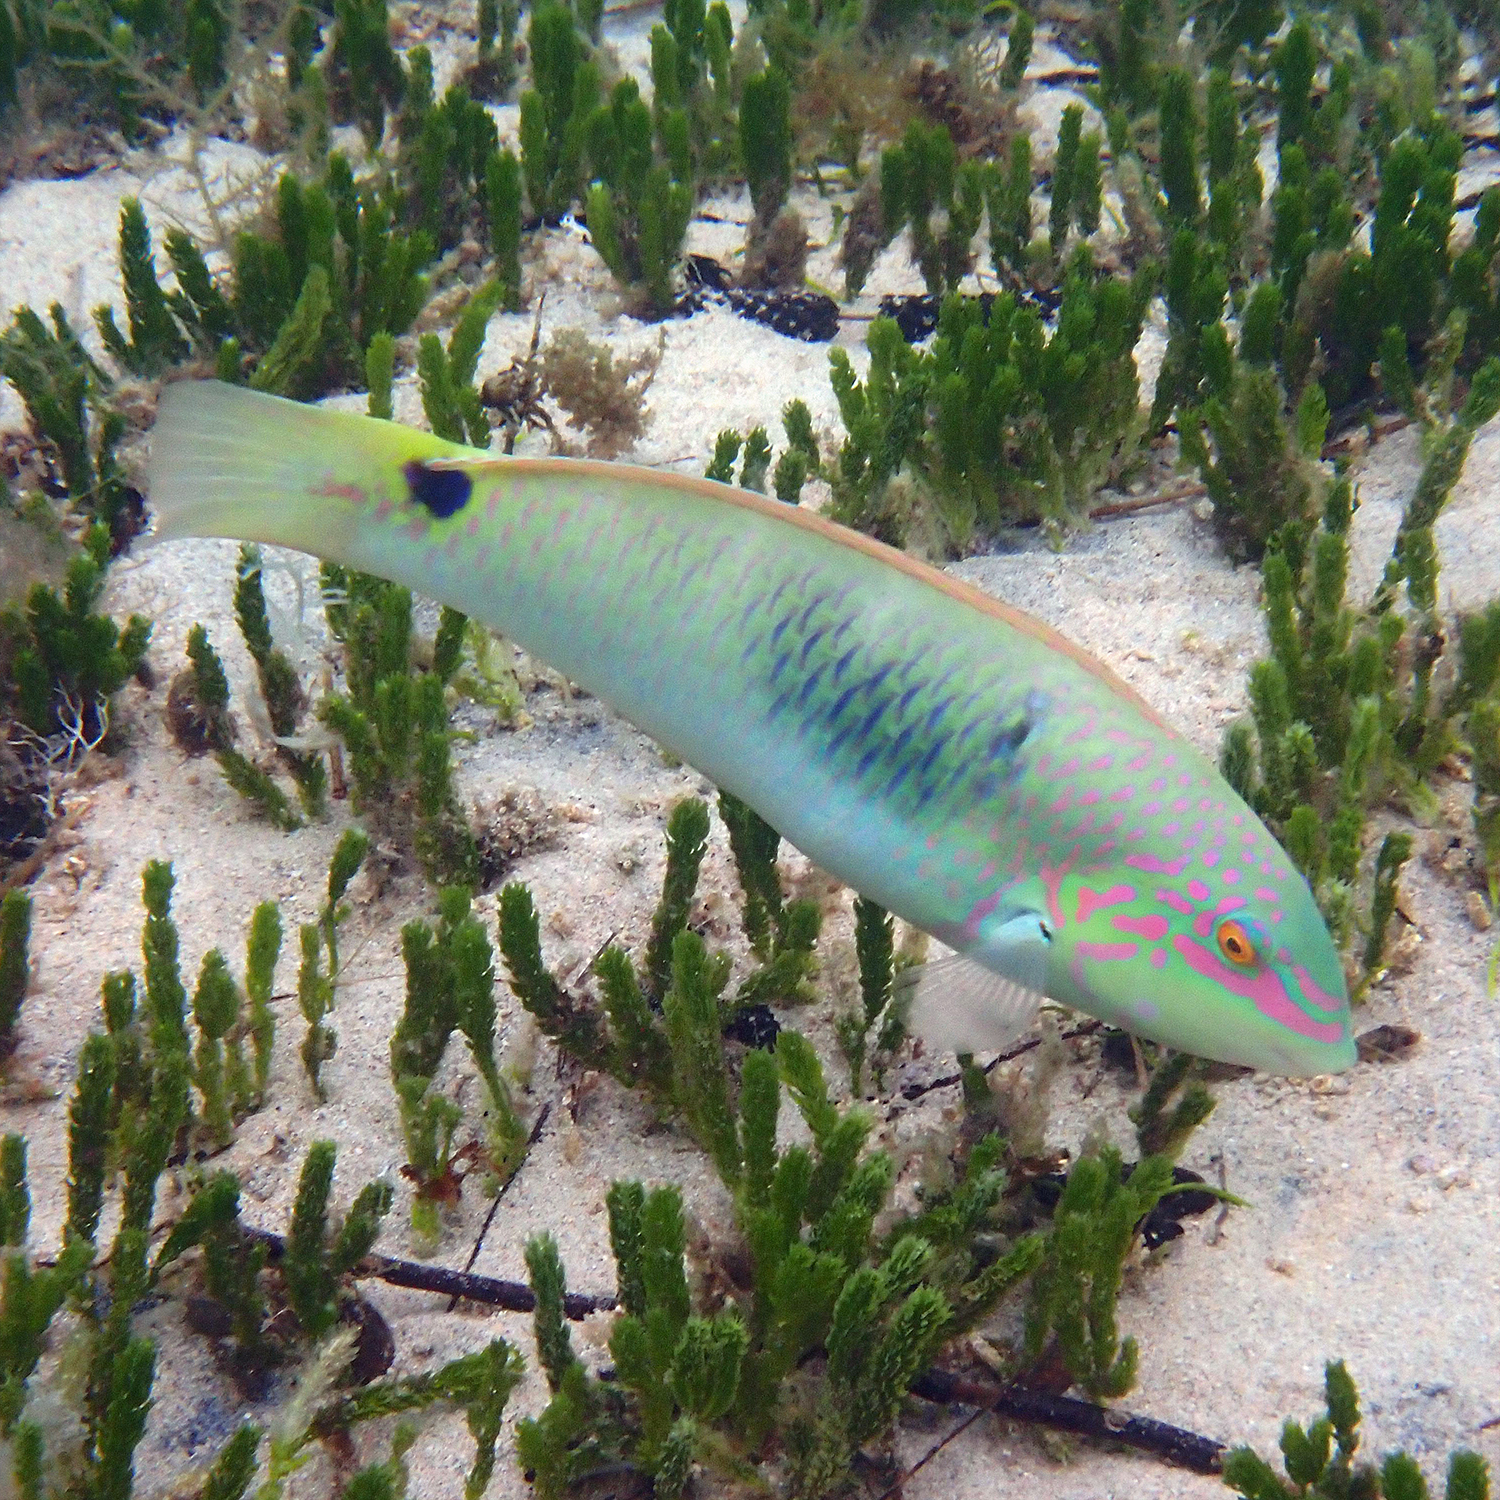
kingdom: Animalia
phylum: Chordata
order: Perciformes
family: Labridae
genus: Halichoeres
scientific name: Halichoeres trimaculatus
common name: Three-spot wrasse
